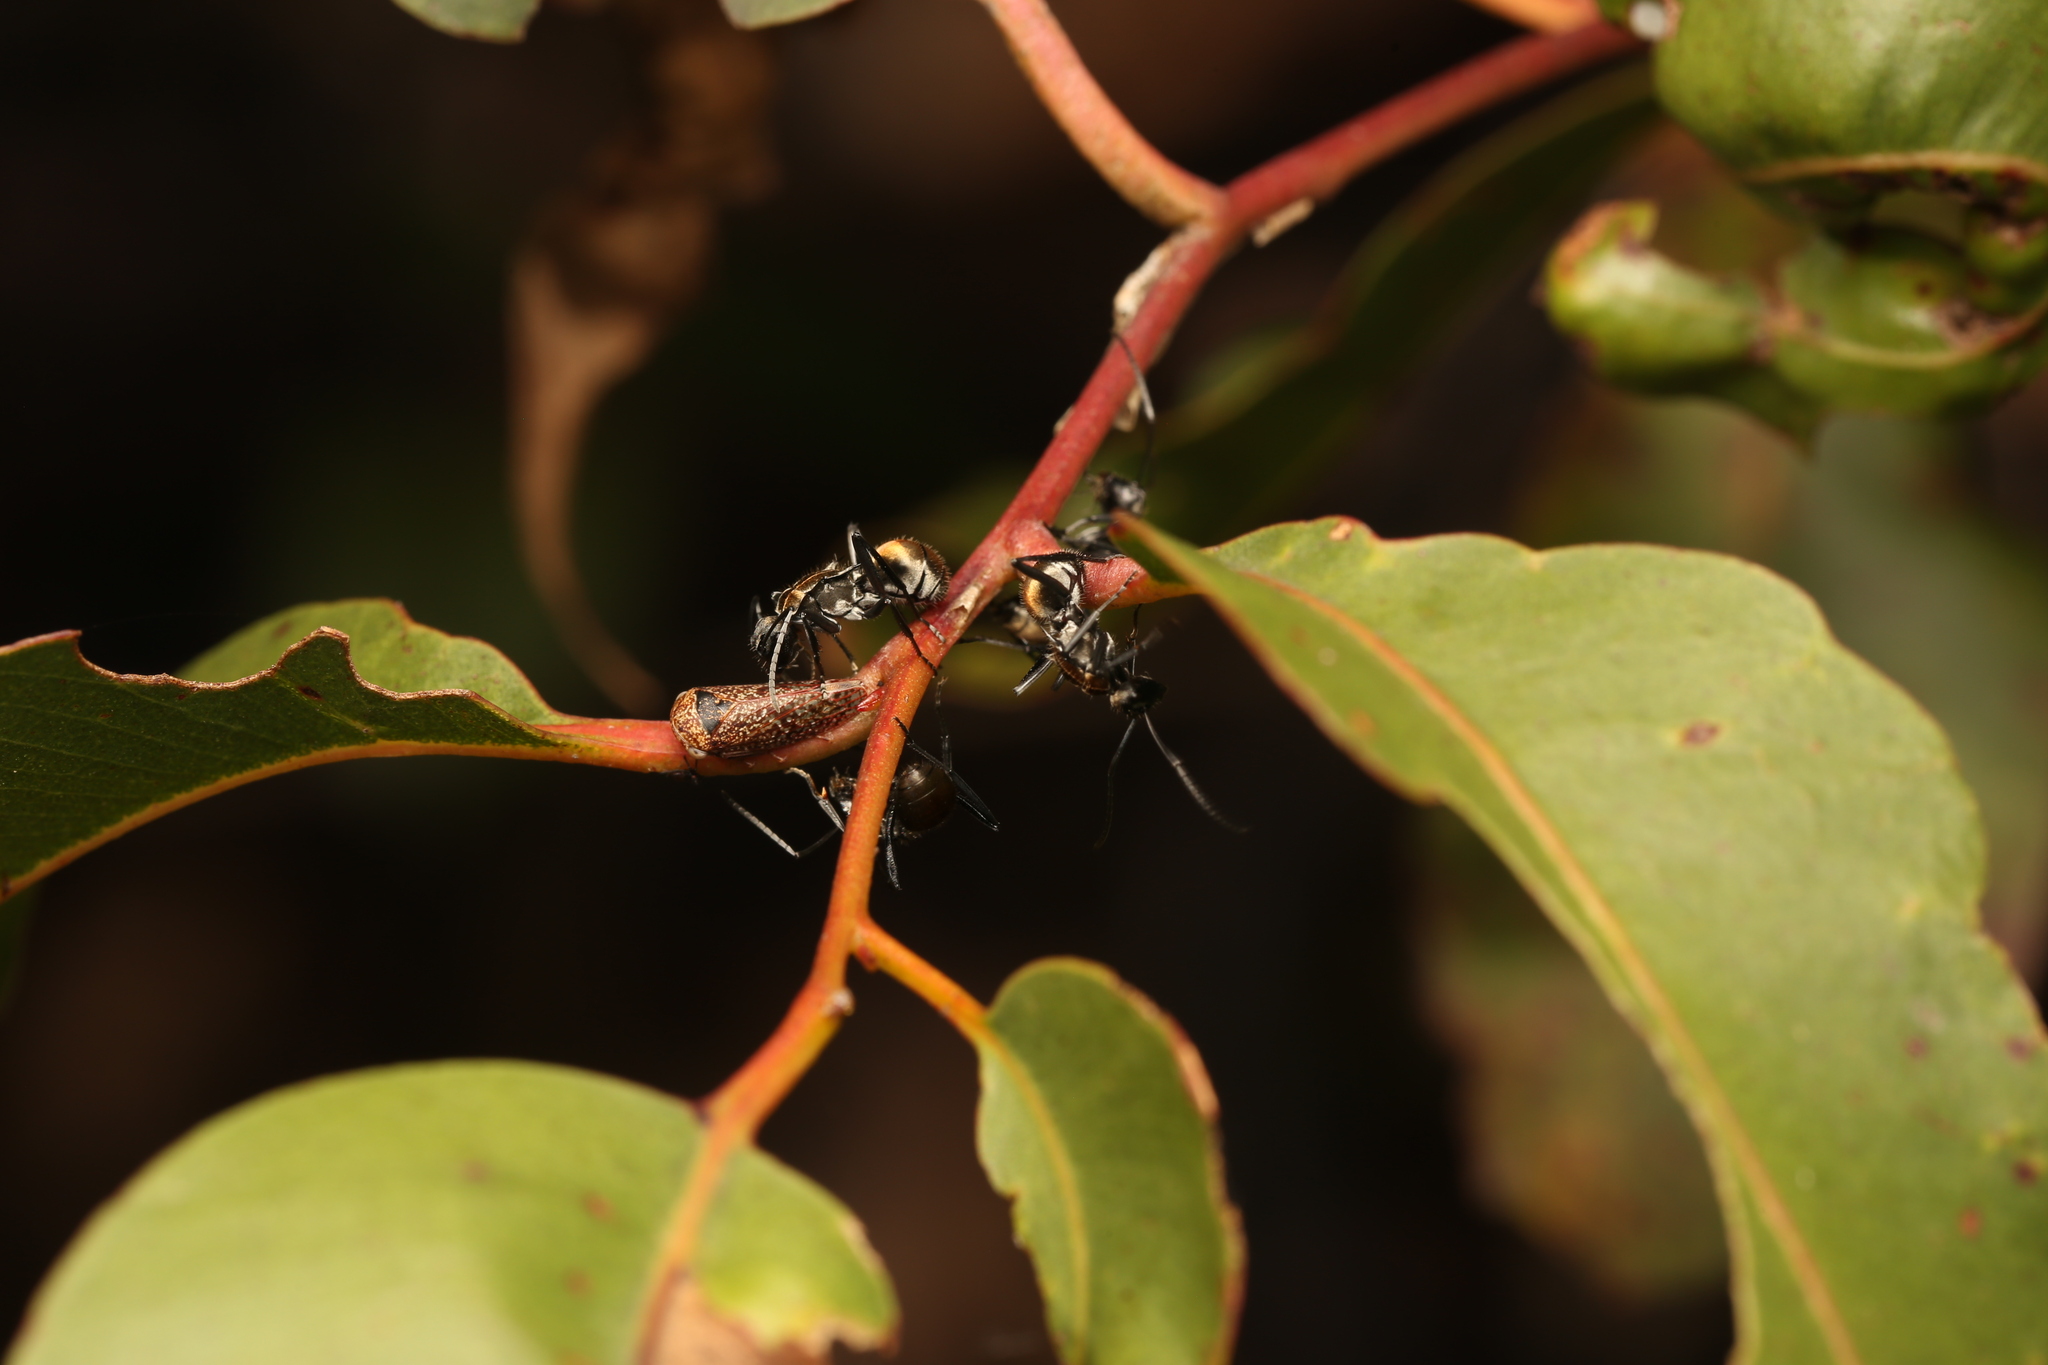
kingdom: Animalia
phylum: Arthropoda
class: Insecta
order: Hymenoptera
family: Formicidae
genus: Polyrhachis
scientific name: Polyrhachis ammon
